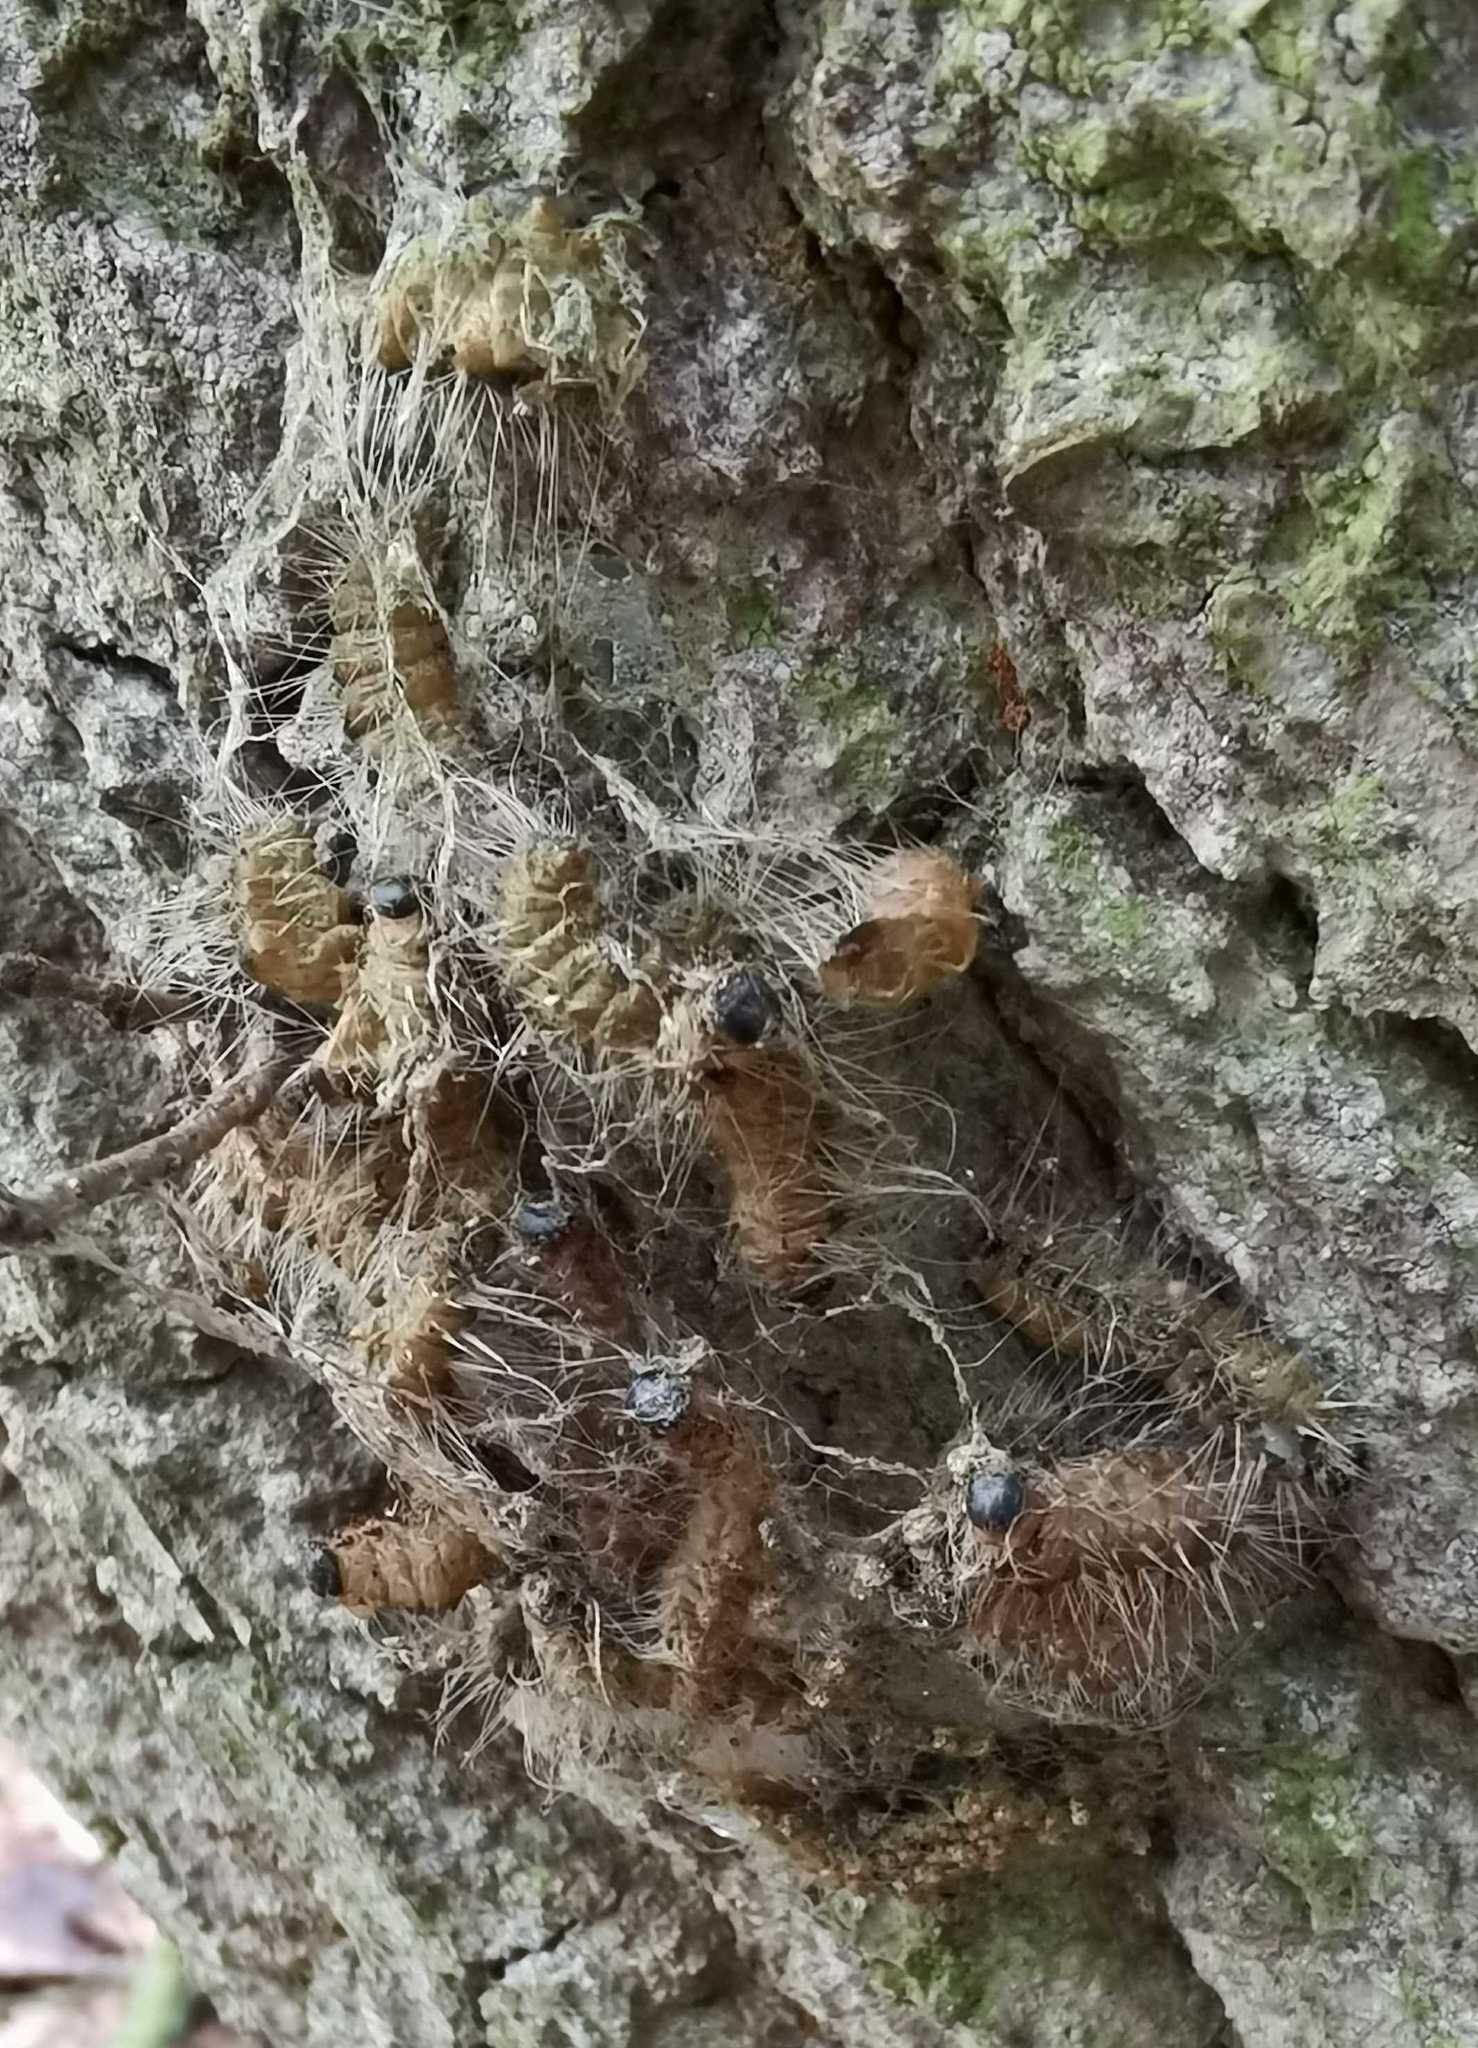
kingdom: Animalia
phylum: Arthropoda
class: Insecta
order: Lepidoptera
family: Notodontidae
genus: Thaumetopoea
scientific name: Thaumetopoea processionea
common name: Oak processionea
